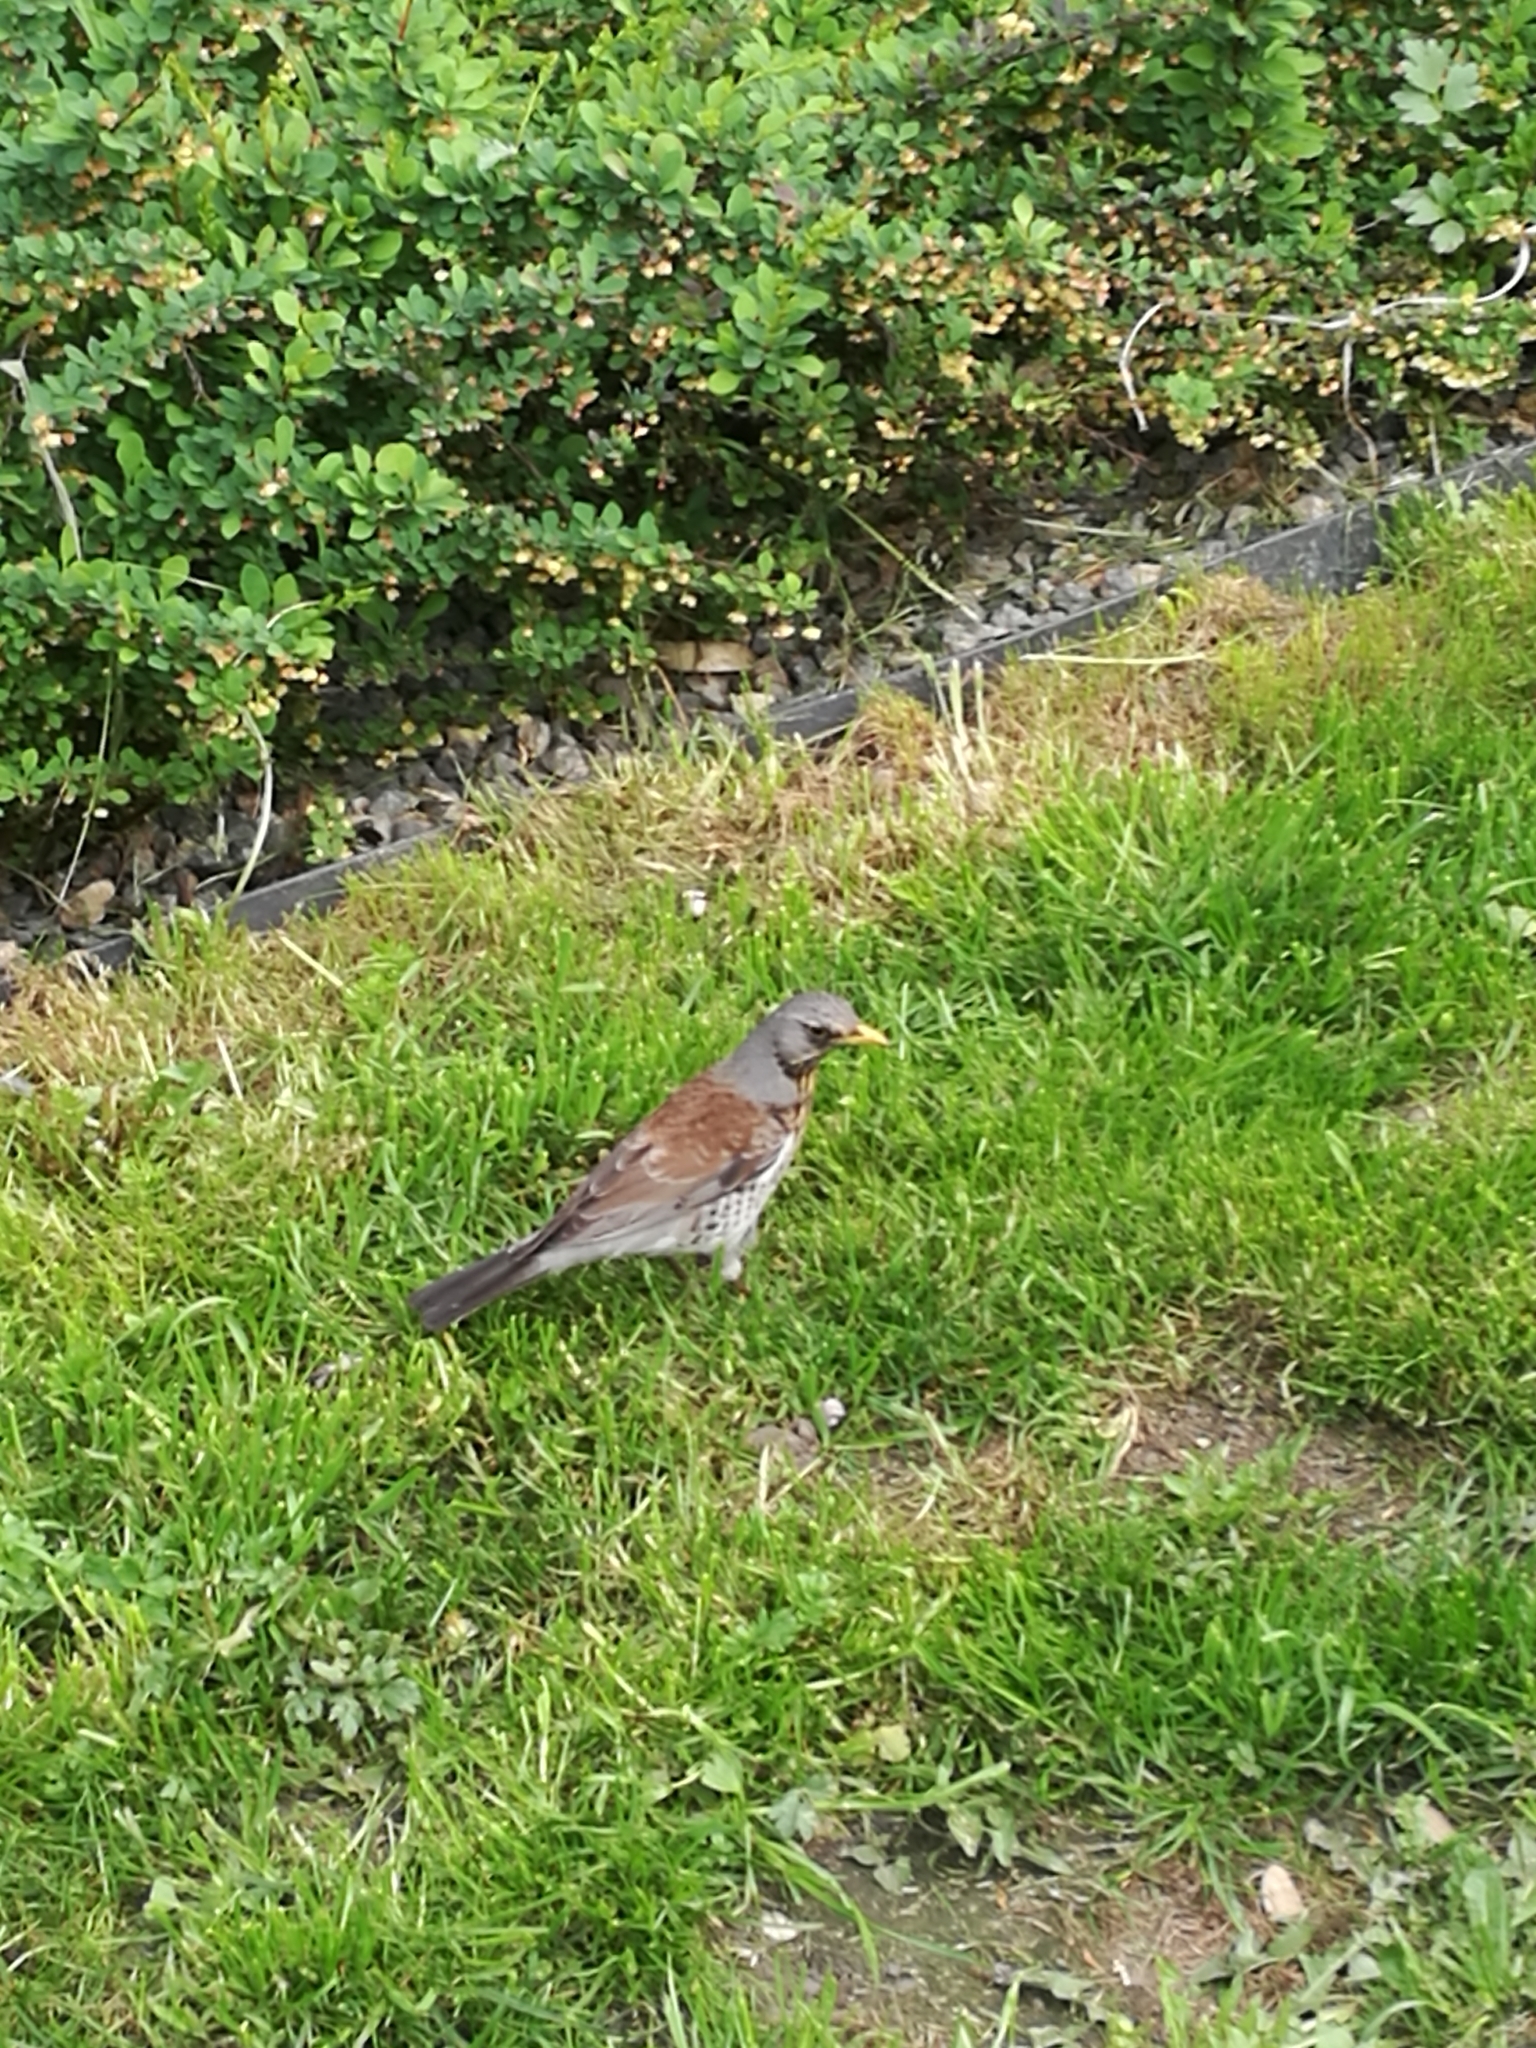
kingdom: Animalia
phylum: Chordata
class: Aves
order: Passeriformes
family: Turdidae
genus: Turdus
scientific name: Turdus pilaris
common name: Fieldfare
